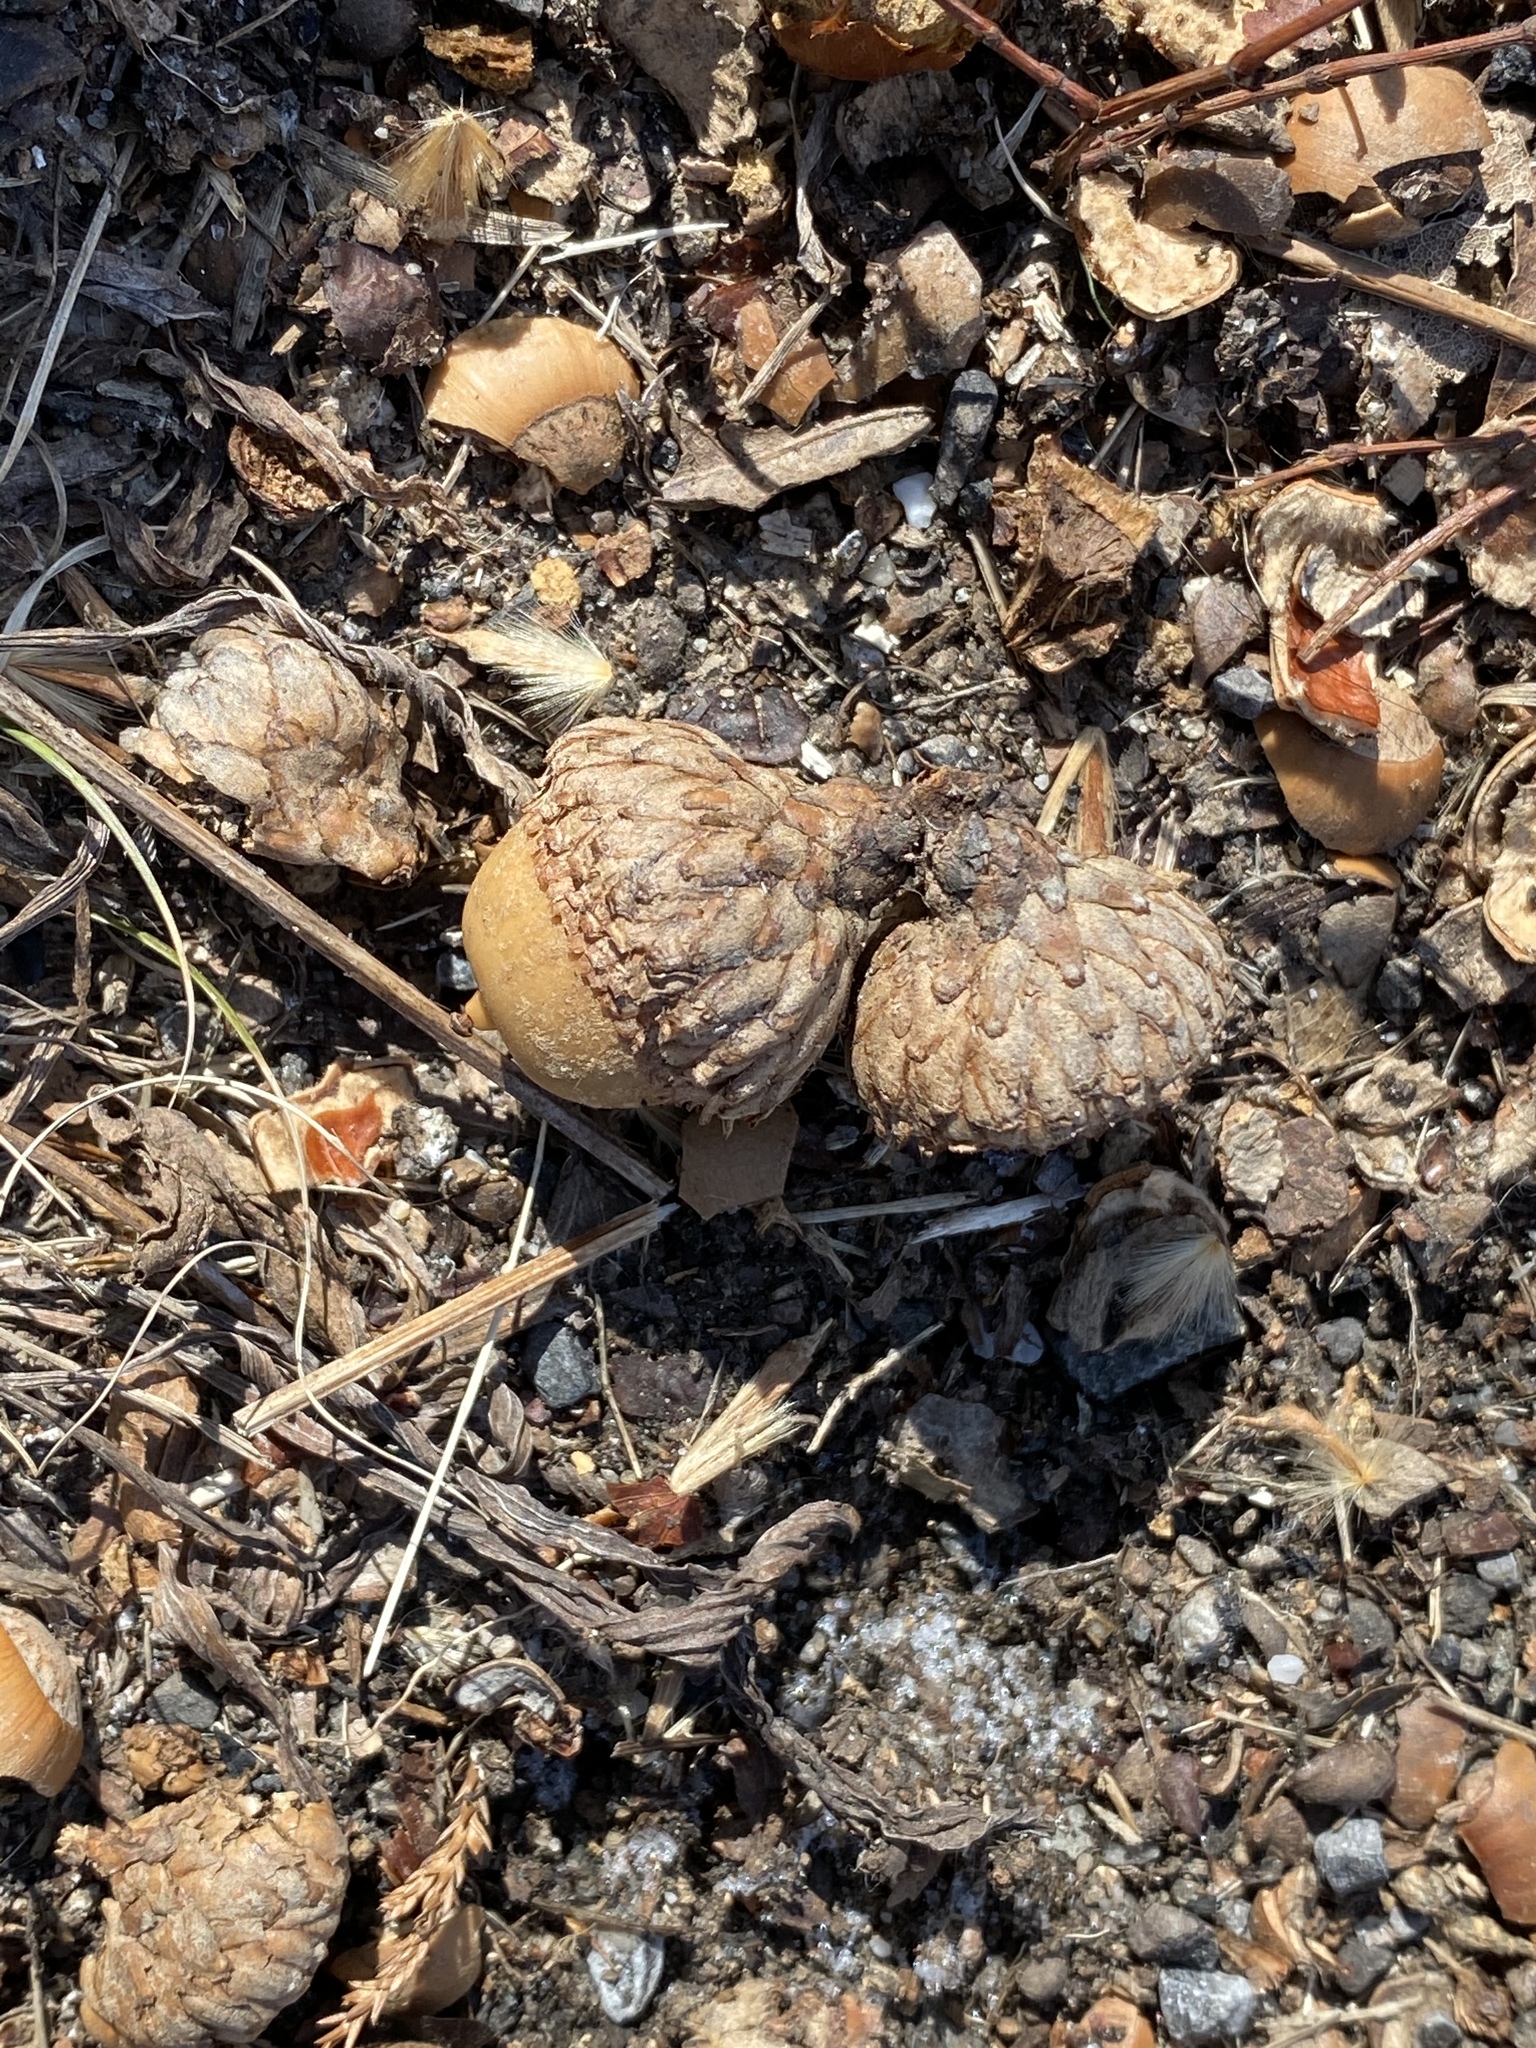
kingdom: Plantae
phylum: Tracheophyta
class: Magnoliopsida
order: Fagales
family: Fagaceae
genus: Quercus
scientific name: Quercus velutina
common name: Black oak
